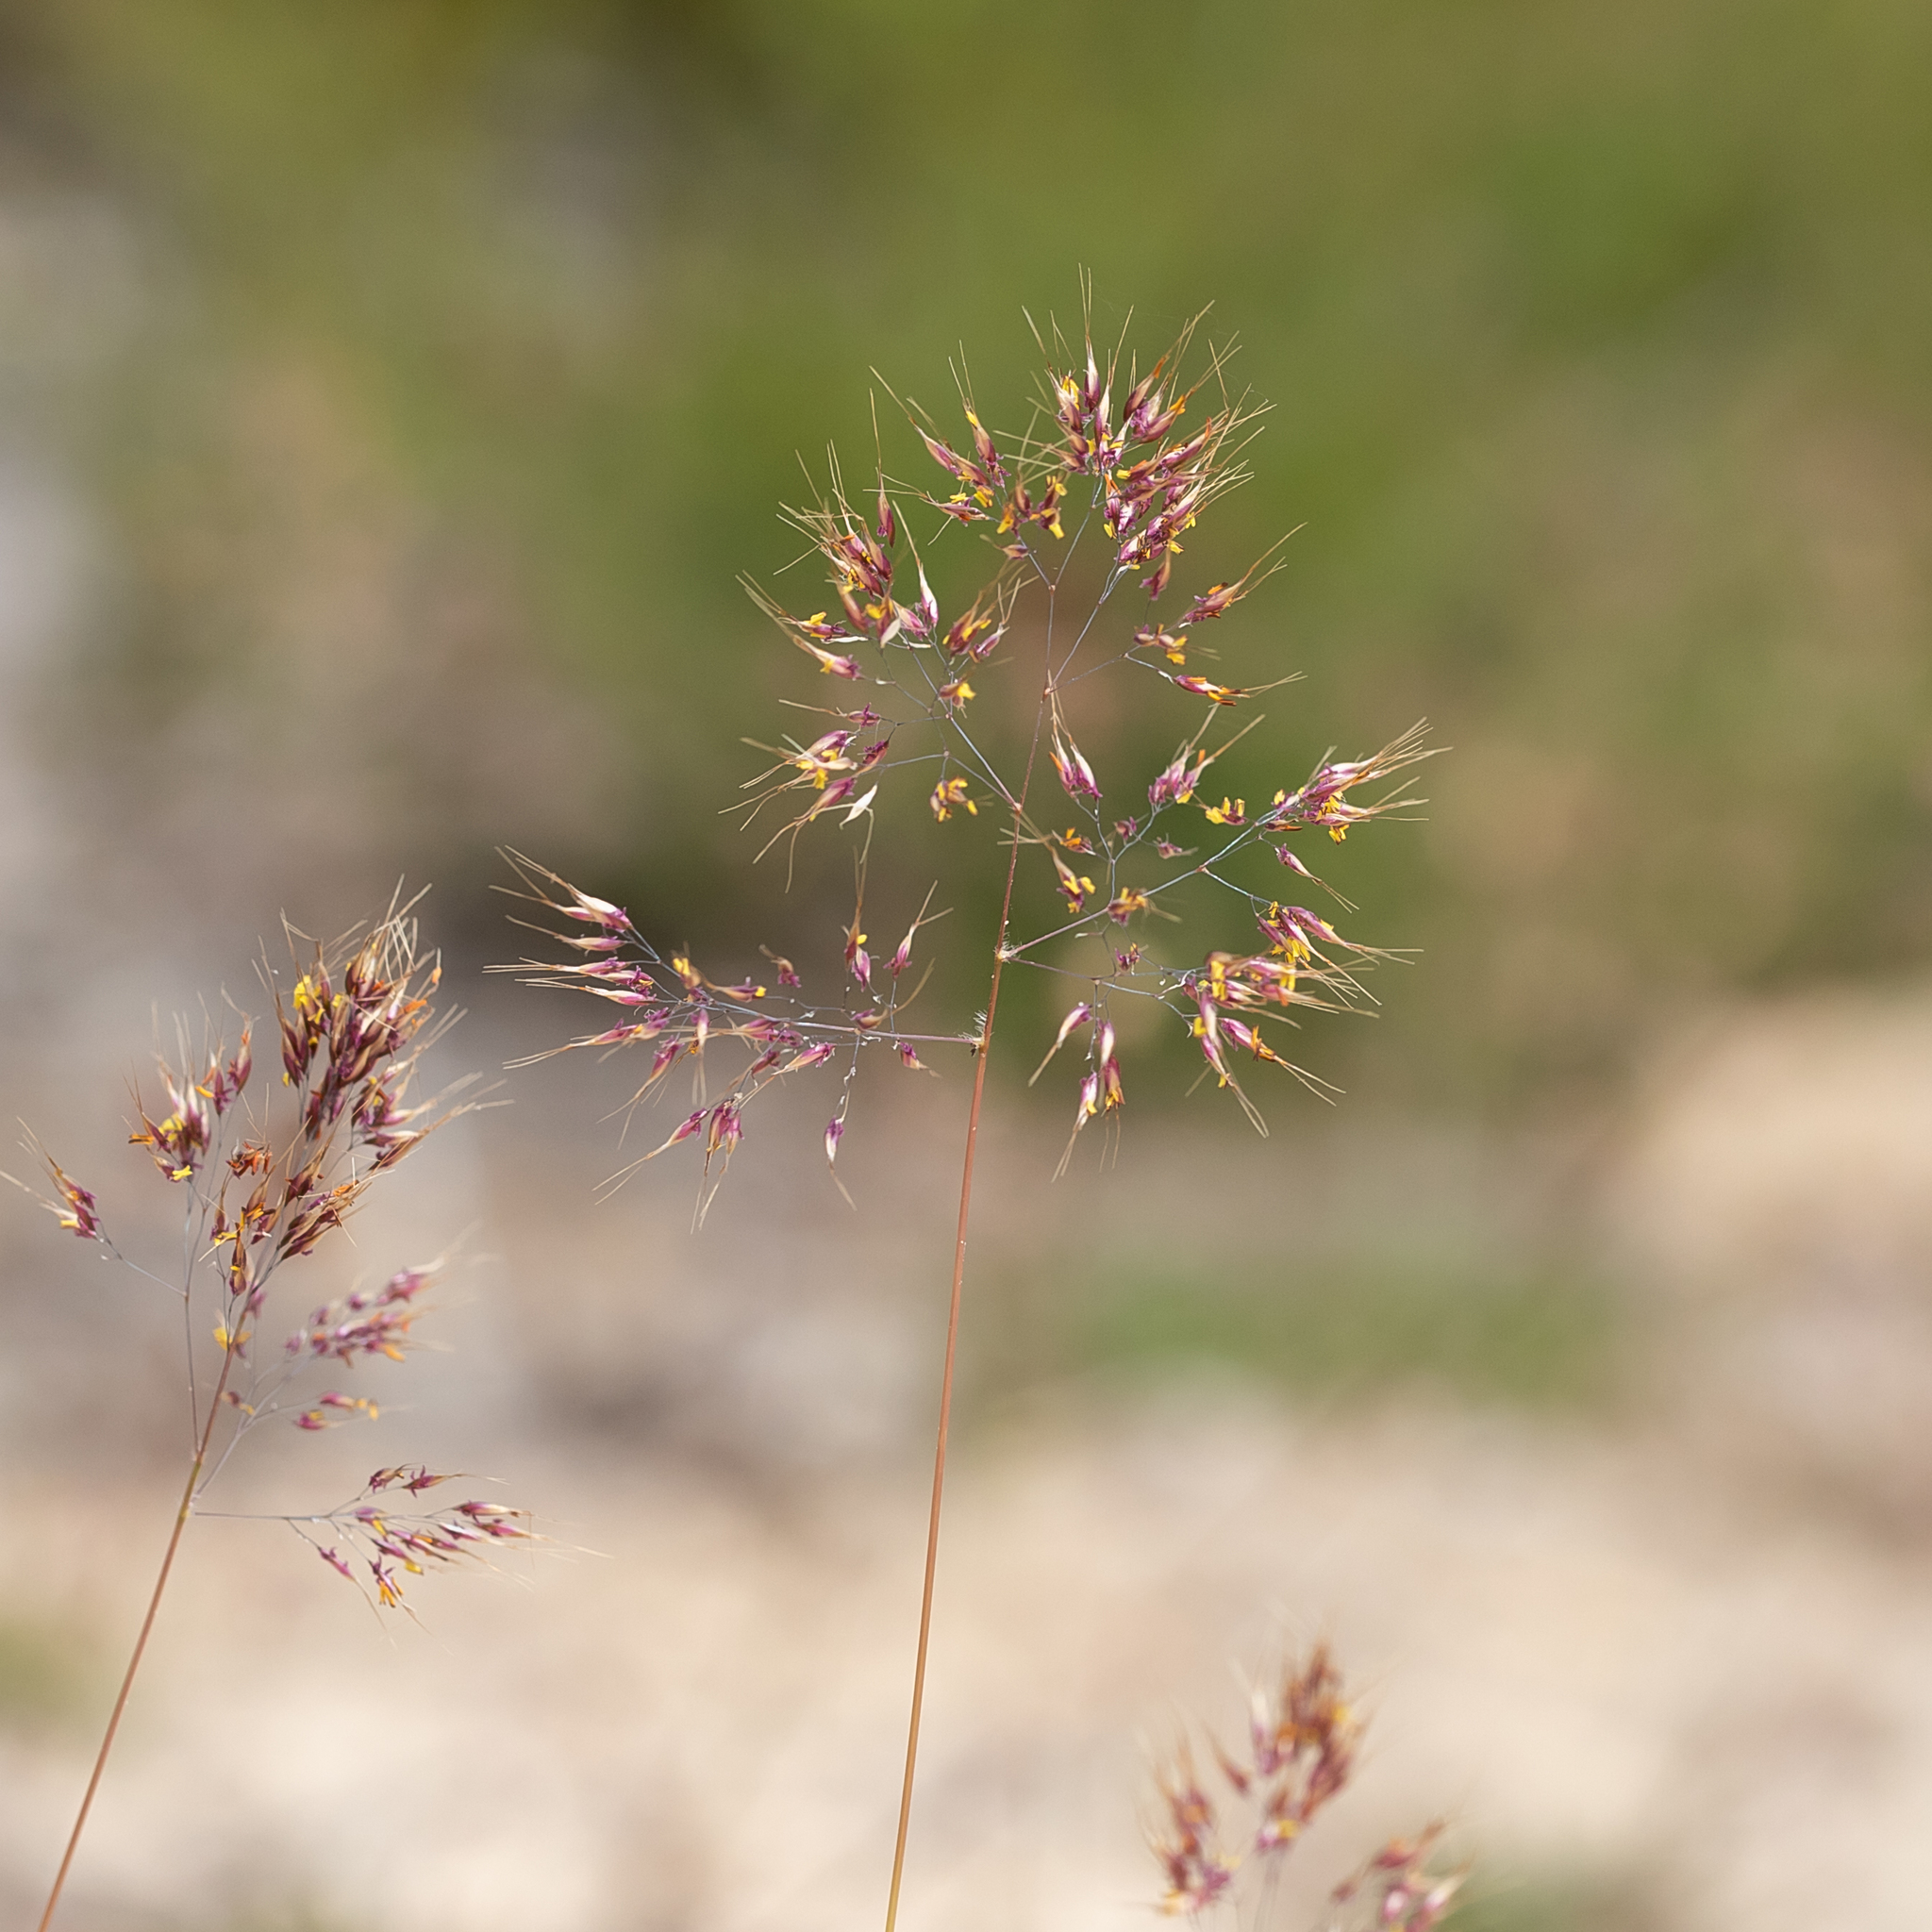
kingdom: Plantae
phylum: Tracheophyta
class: Liliopsida
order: Poales
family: Poaceae
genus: Pentameris
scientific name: Pentameris pallida
